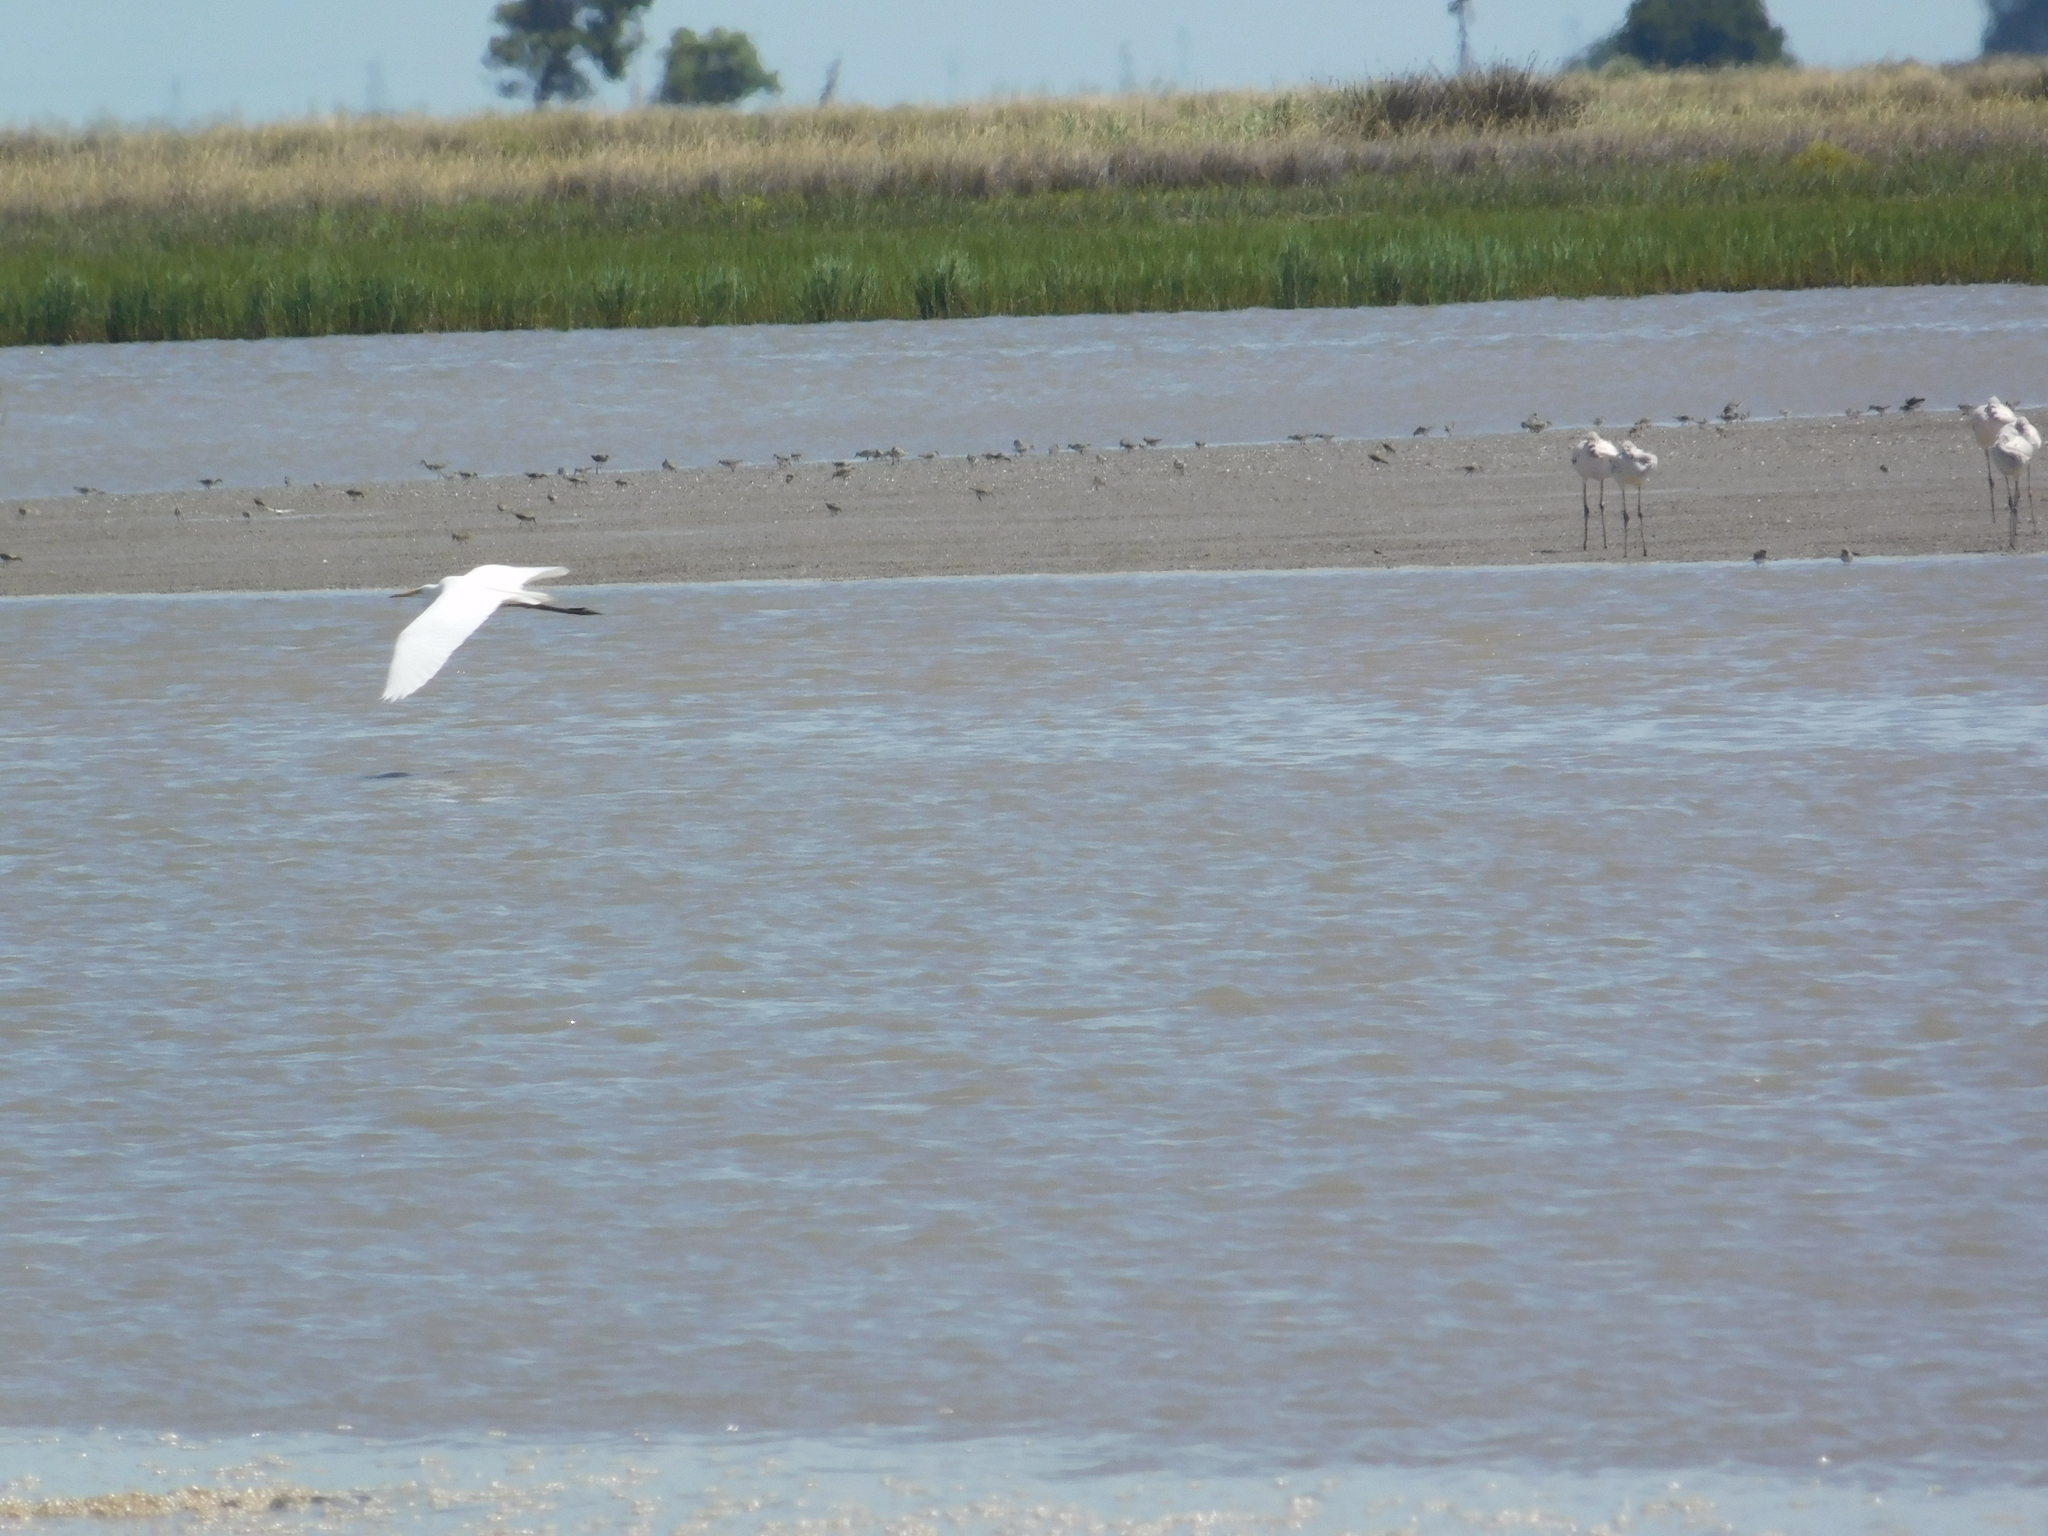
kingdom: Animalia
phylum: Chordata
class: Aves
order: Pelecaniformes
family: Ardeidae
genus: Ardea
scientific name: Ardea alba
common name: Great egret
